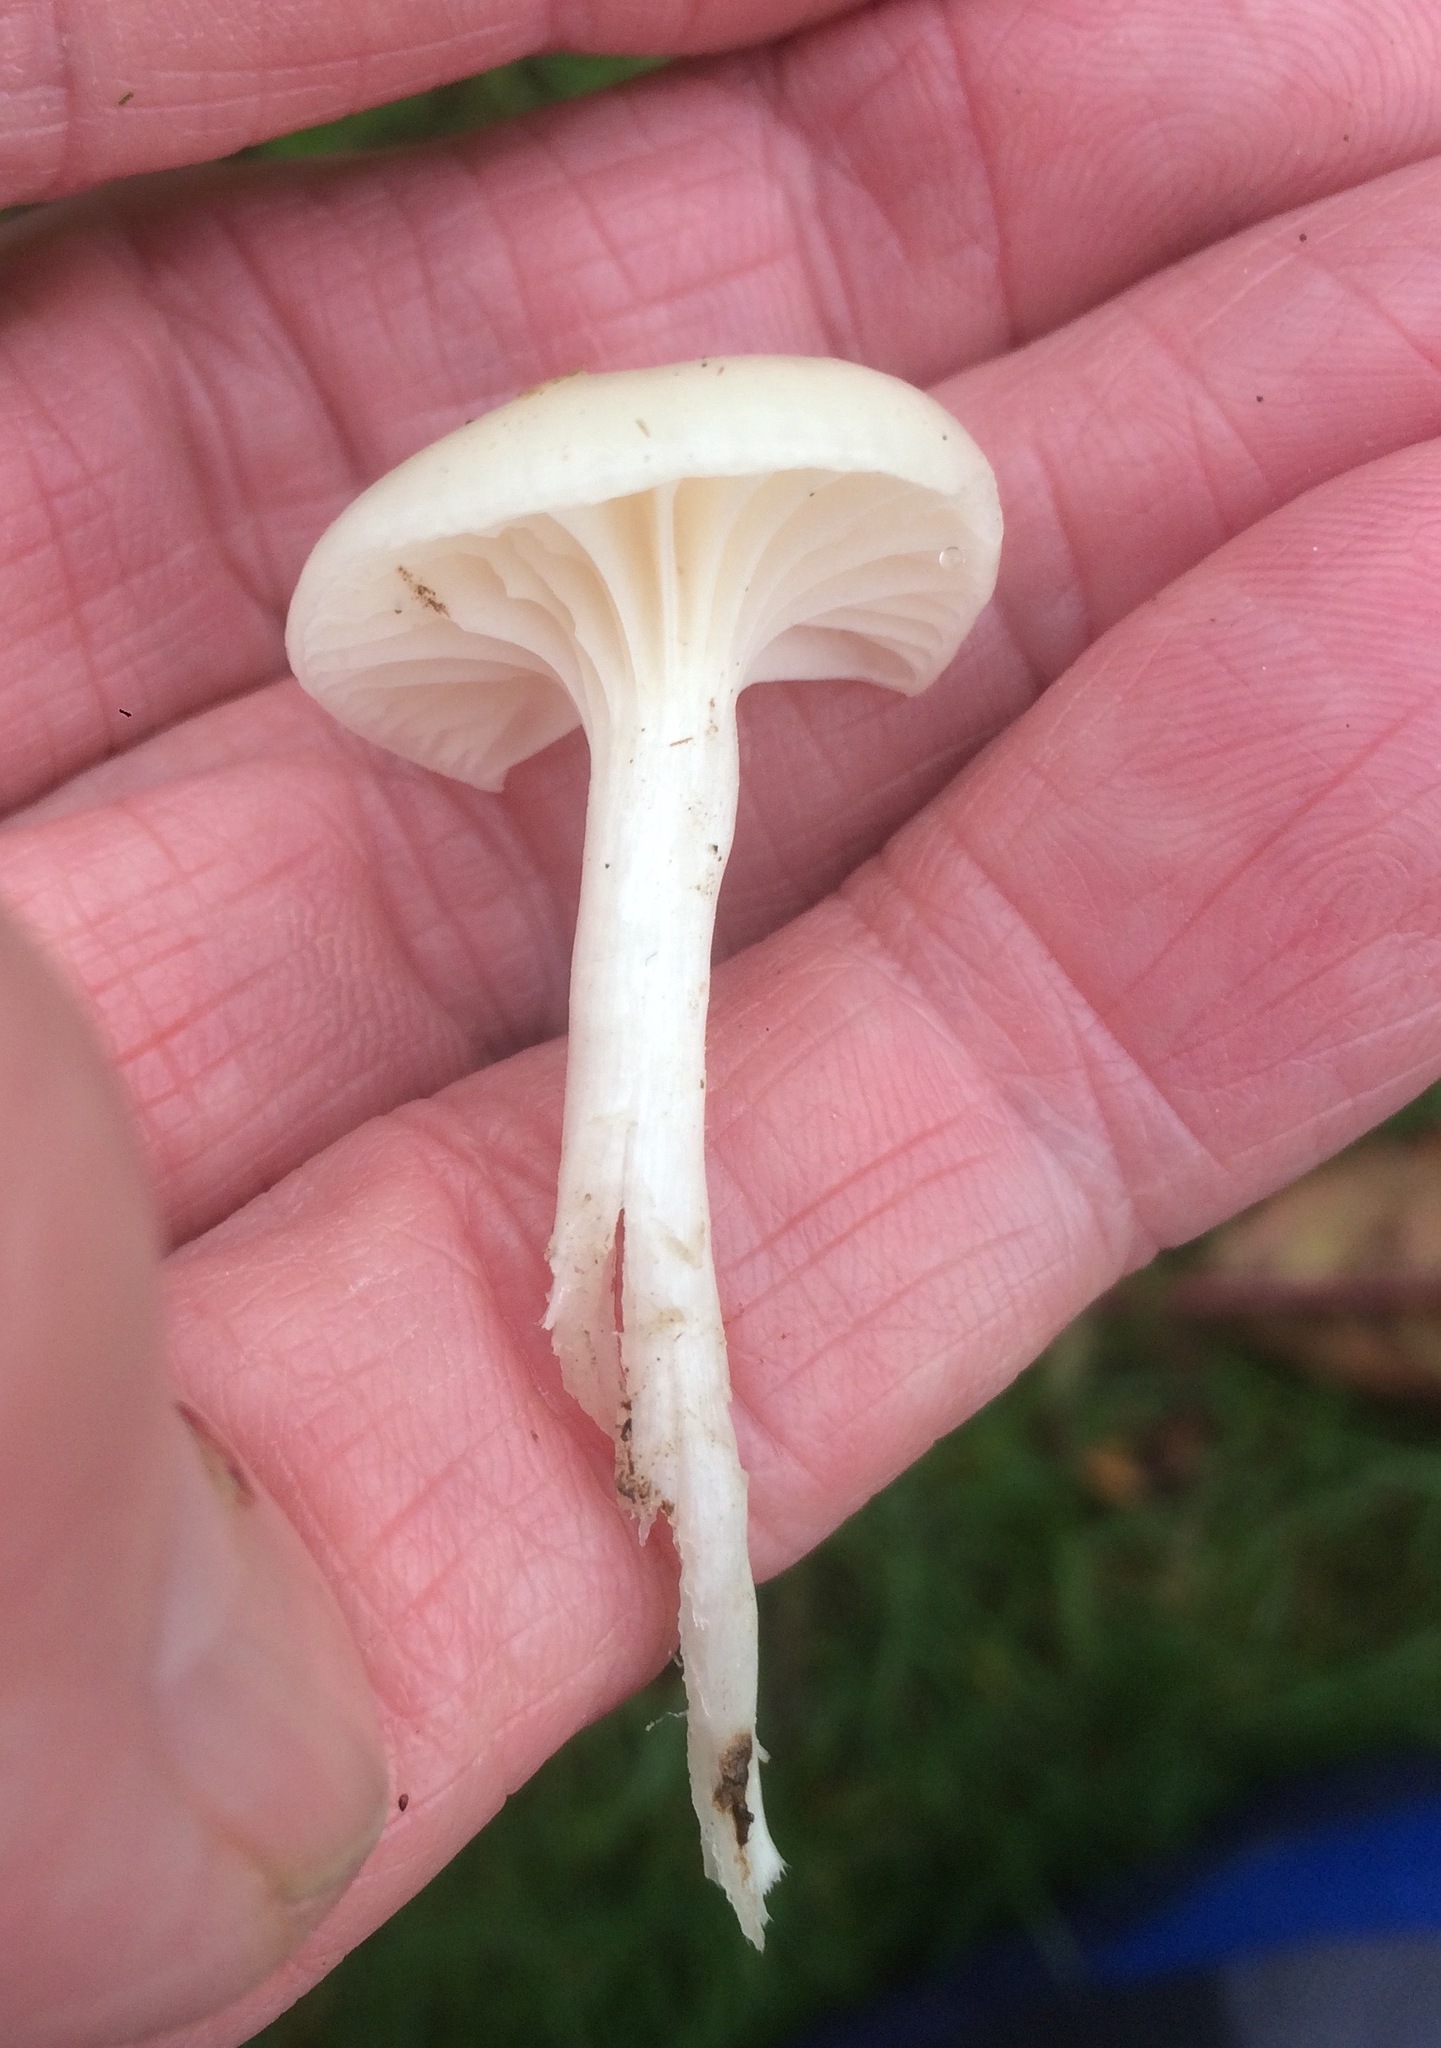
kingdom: Fungi
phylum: Basidiomycota
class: Agaricomycetes
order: Agaricales
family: Hygrophoraceae
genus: Cuphophyllus
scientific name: Cuphophyllus virgineus
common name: Snowy waxcap
